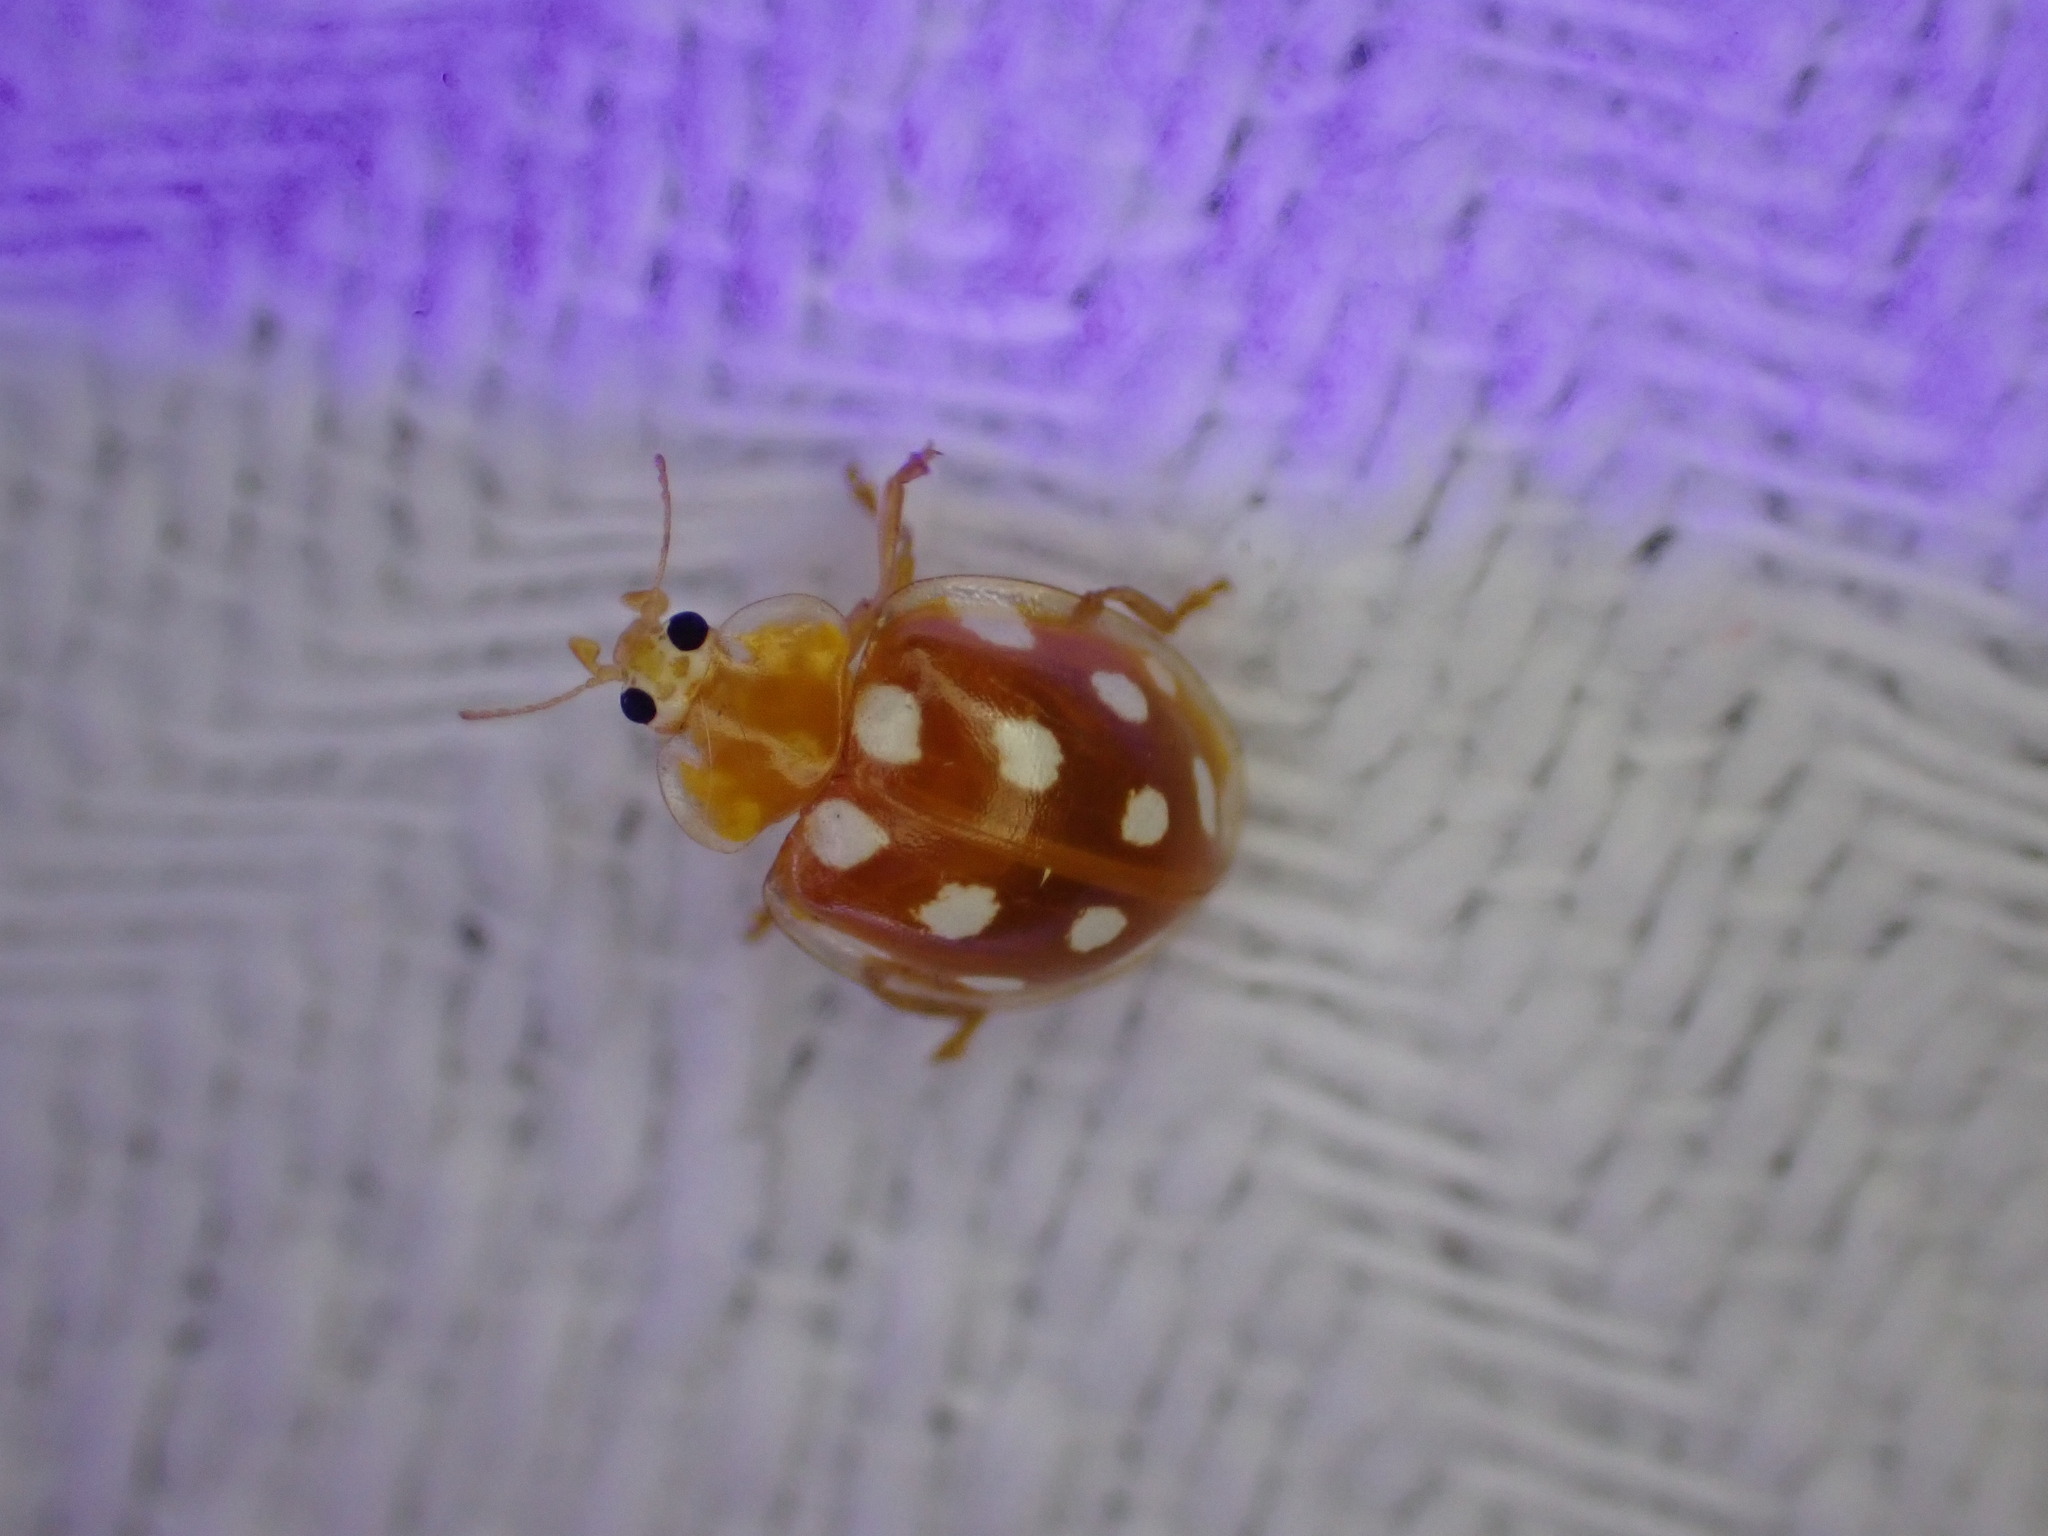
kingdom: Animalia
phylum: Arthropoda
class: Insecta
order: Coleoptera
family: Coccinellidae
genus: Halyzia
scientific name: Halyzia sedecimguttata
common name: Orange ladybird
